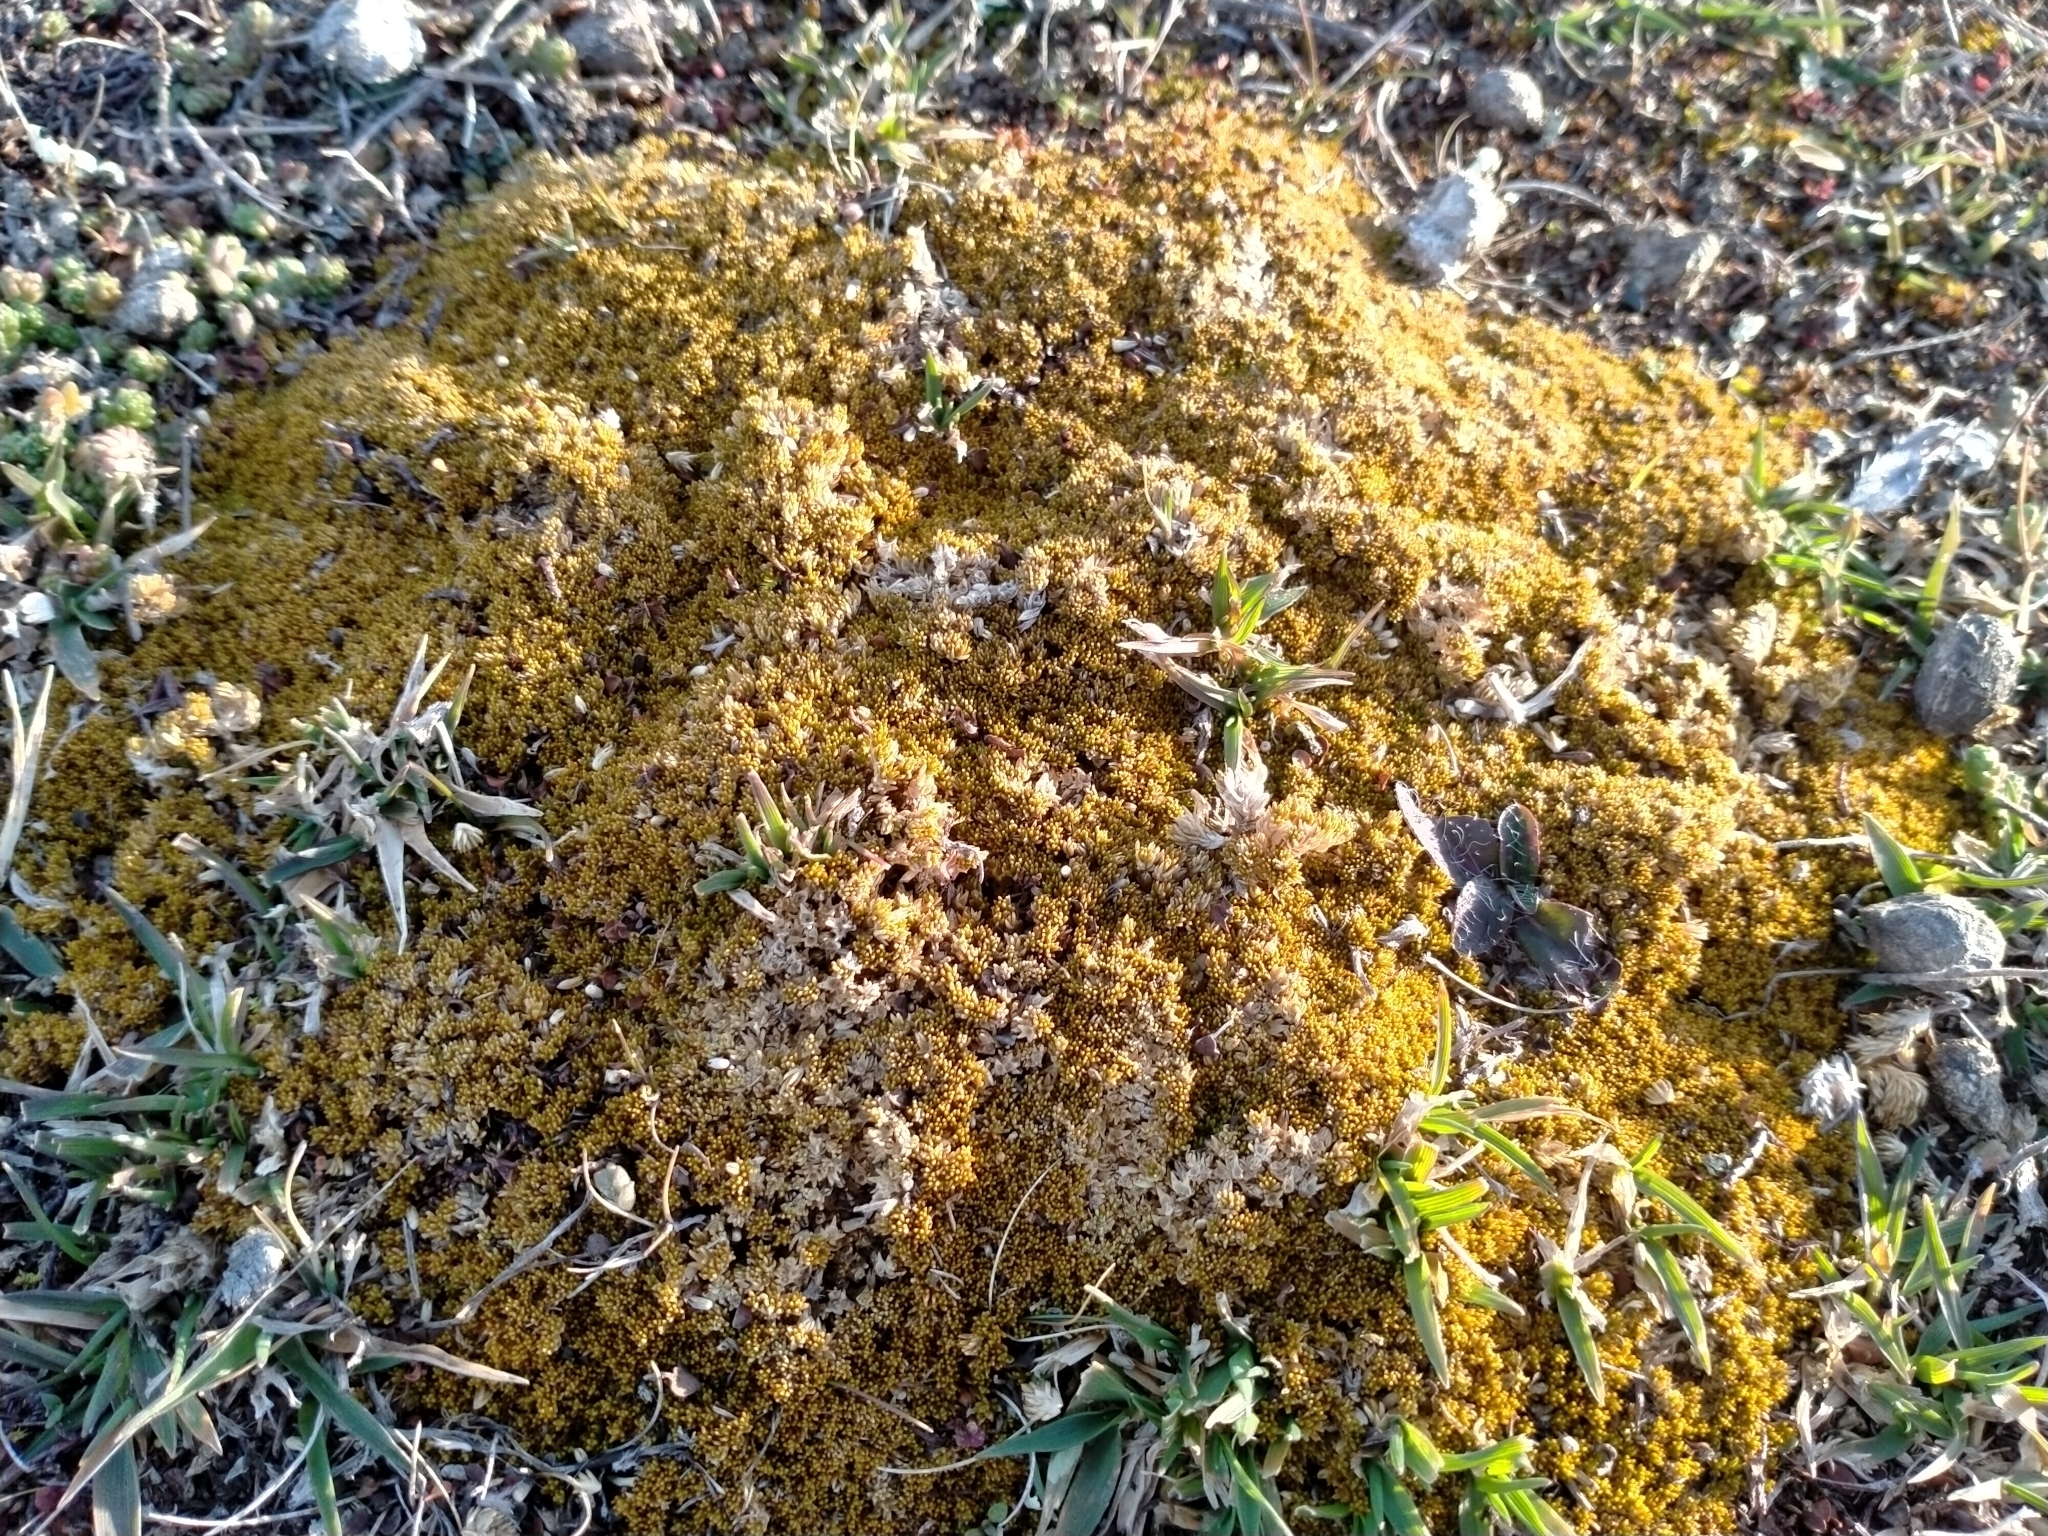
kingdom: Plantae
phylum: Tracheophyta
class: Magnoliopsida
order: Caryophyllales
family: Caryophyllaceae
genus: Scleranthus
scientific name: Scleranthus uniflorus
